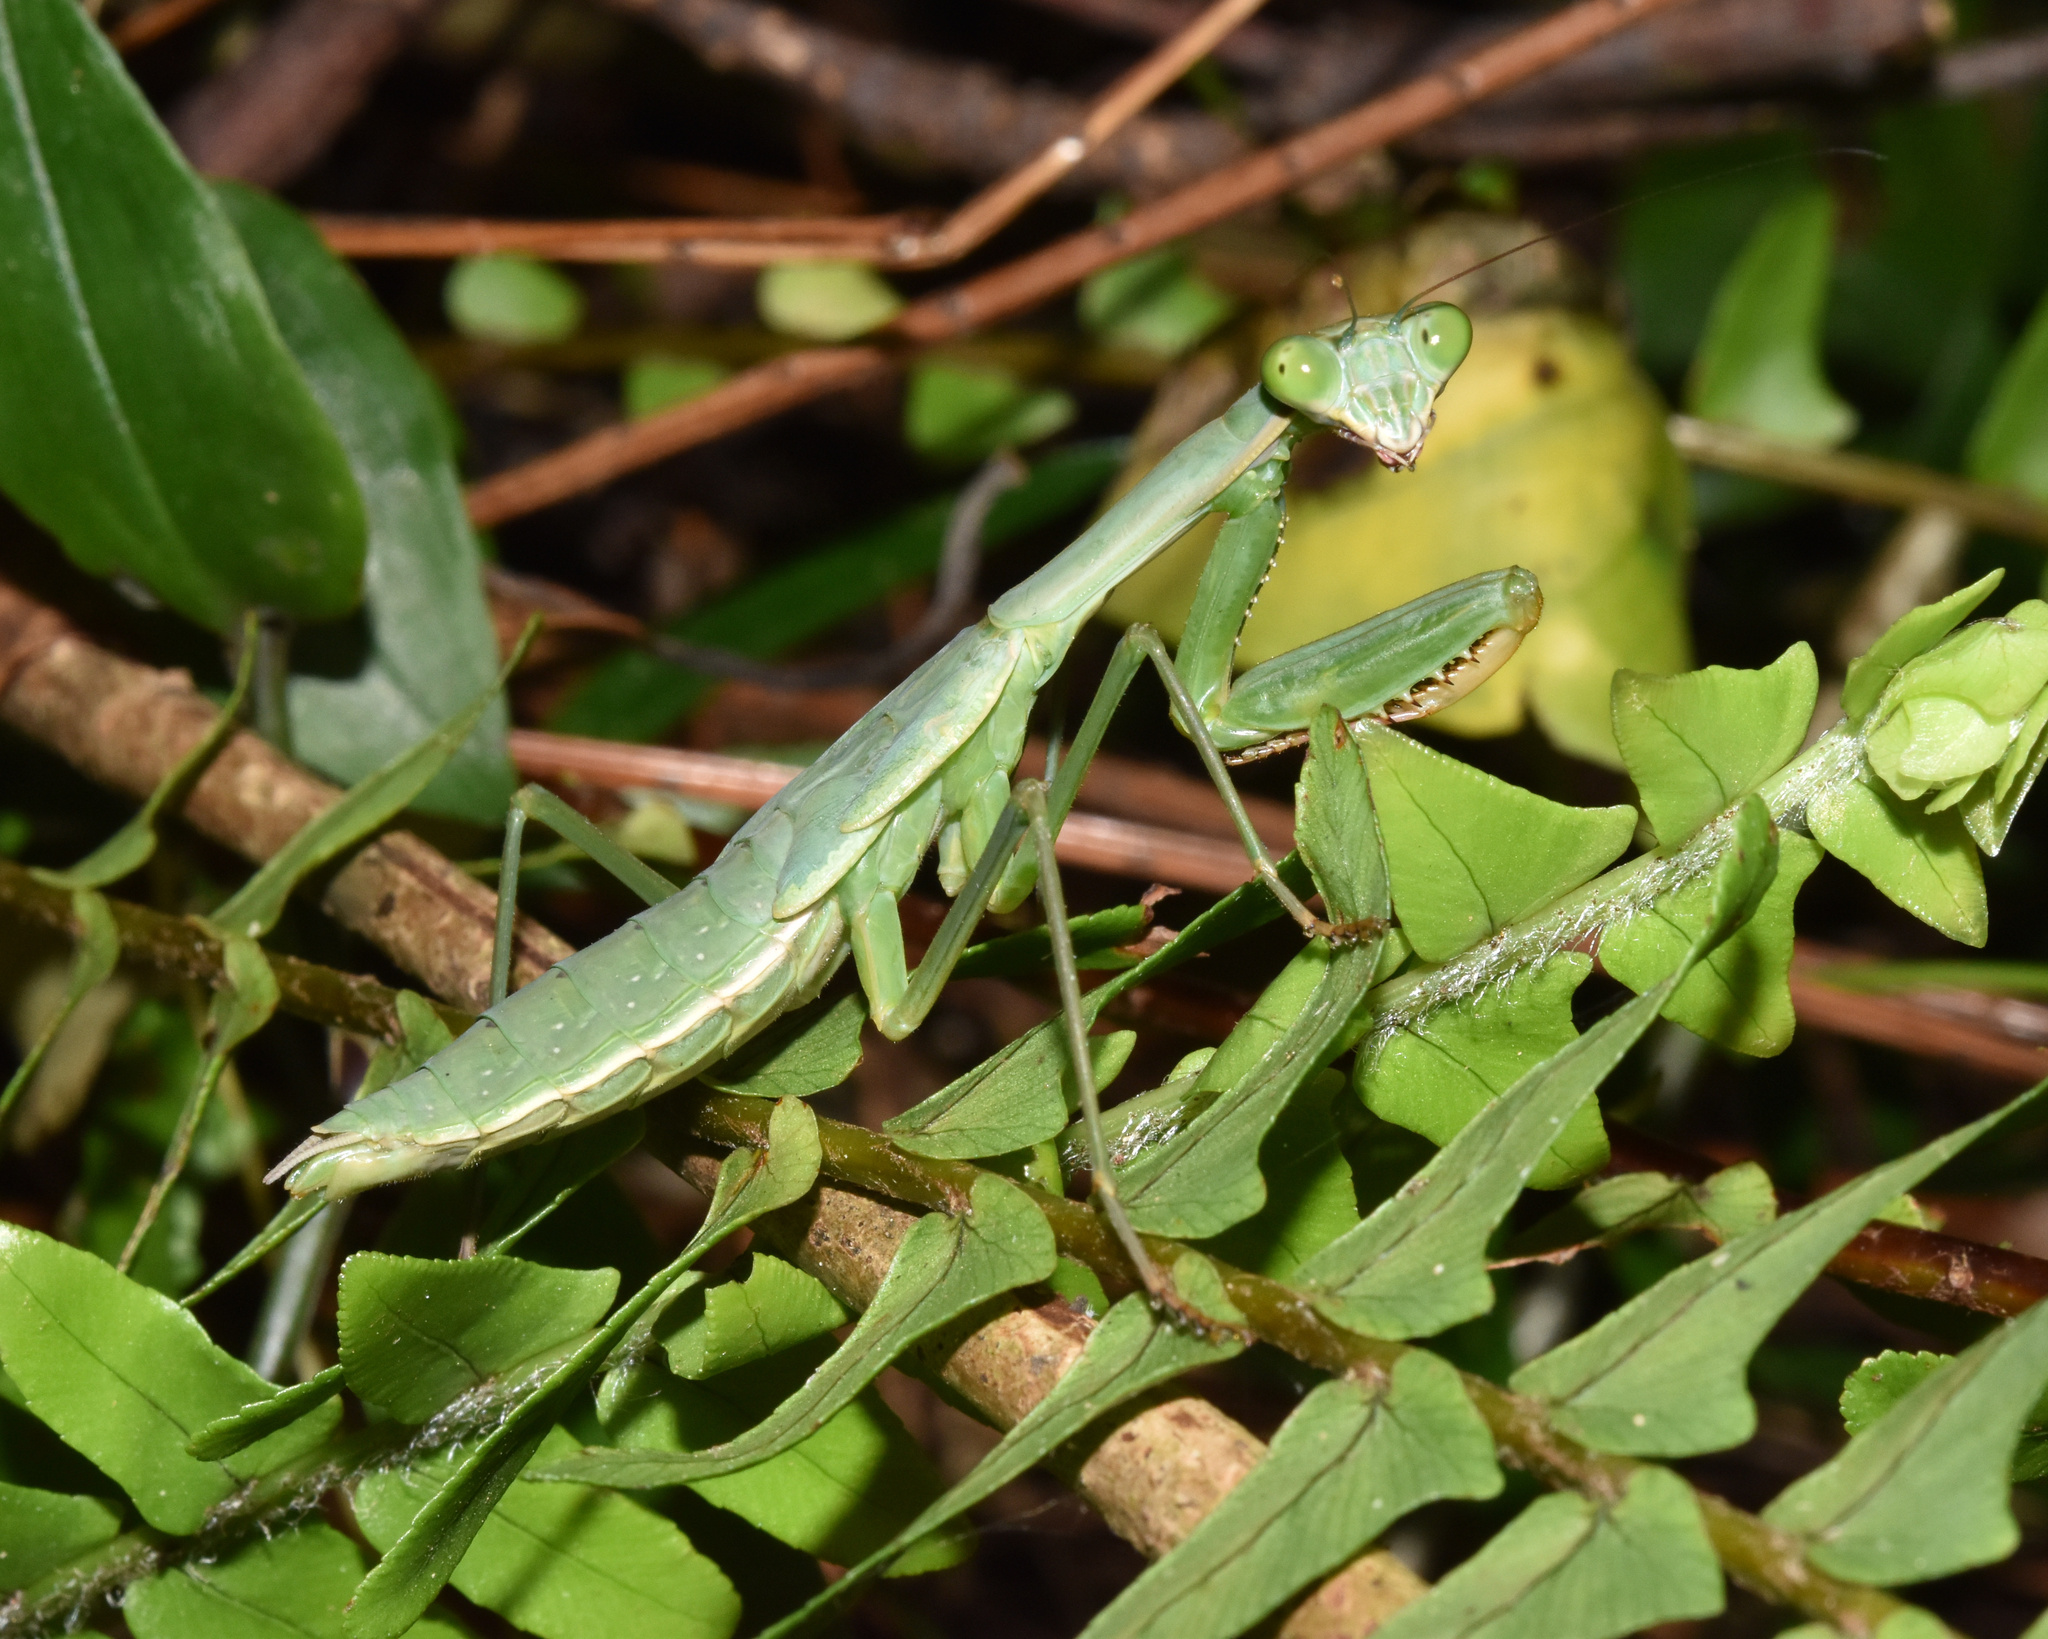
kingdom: Animalia
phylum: Arthropoda
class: Insecta
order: Mantodea
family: Mantidae
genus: Polyspilota
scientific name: Polyspilota aeruginosa
